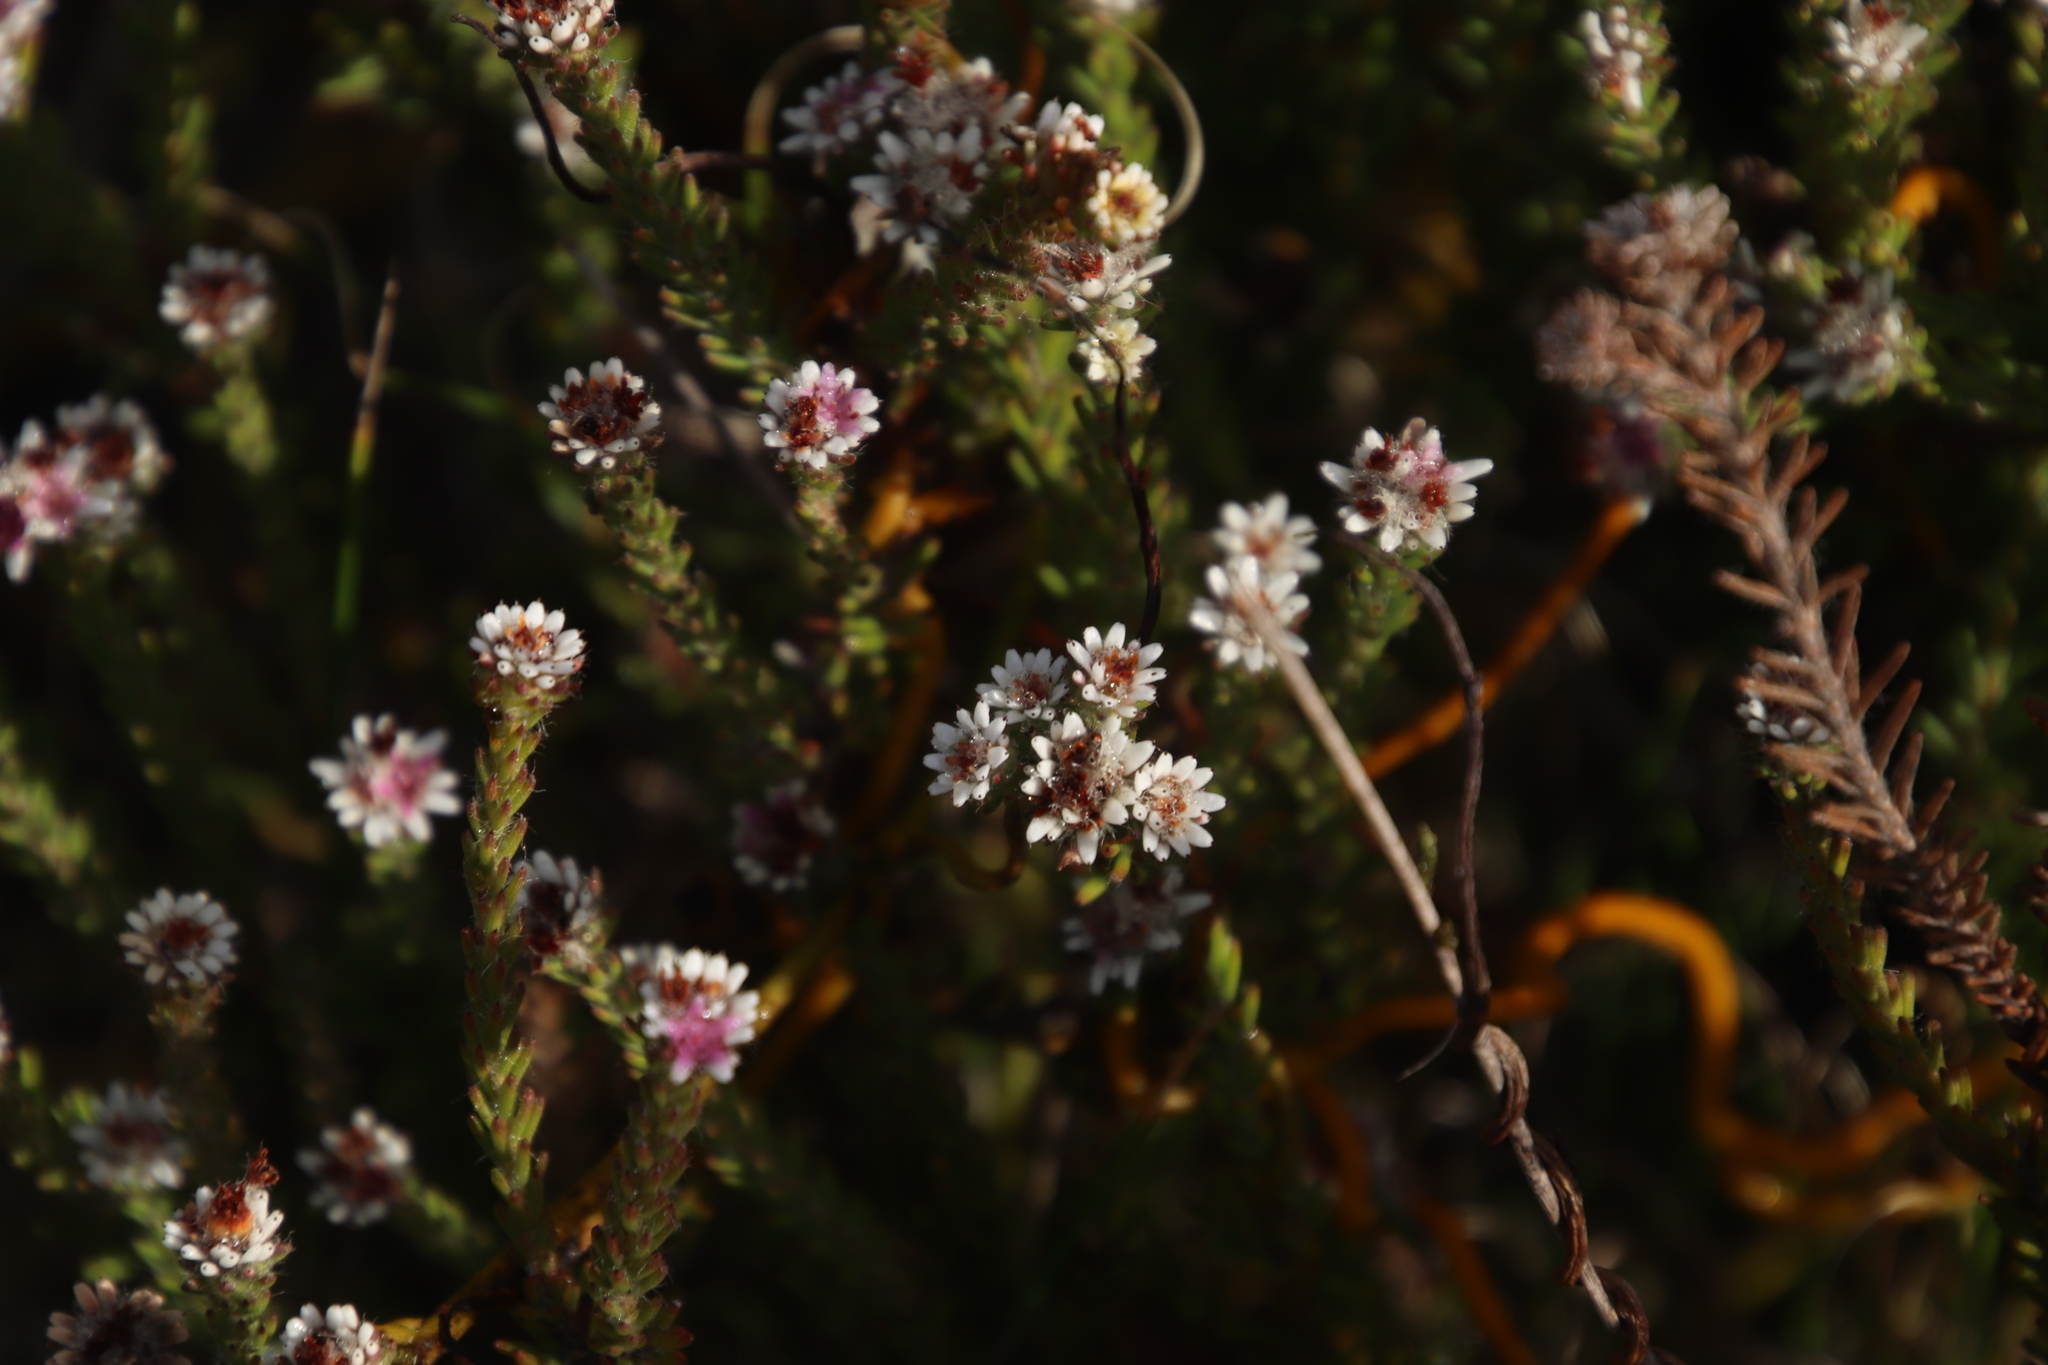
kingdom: Plantae
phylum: Tracheophyta
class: Magnoliopsida
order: Bruniales
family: Bruniaceae
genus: Staavia
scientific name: Staavia radiata
